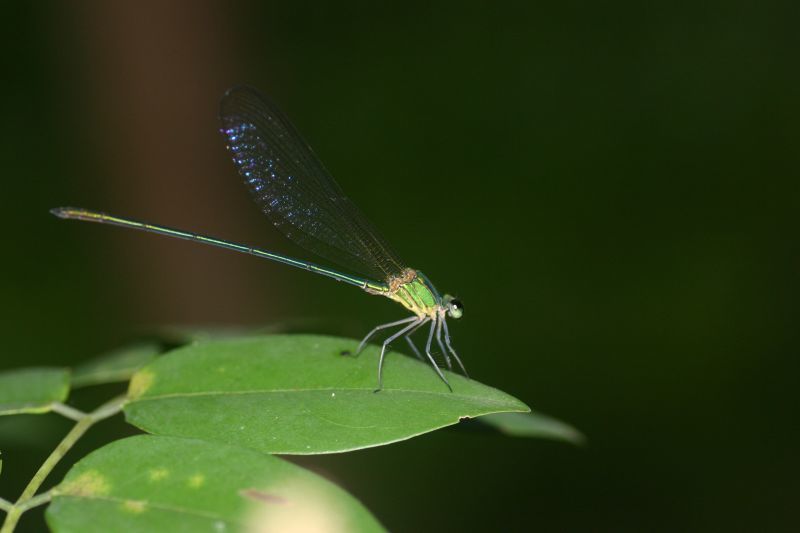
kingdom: Animalia
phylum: Arthropoda
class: Insecta
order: Odonata
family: Calopterygidae
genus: Vestalis
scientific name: Vestalis gracilis
